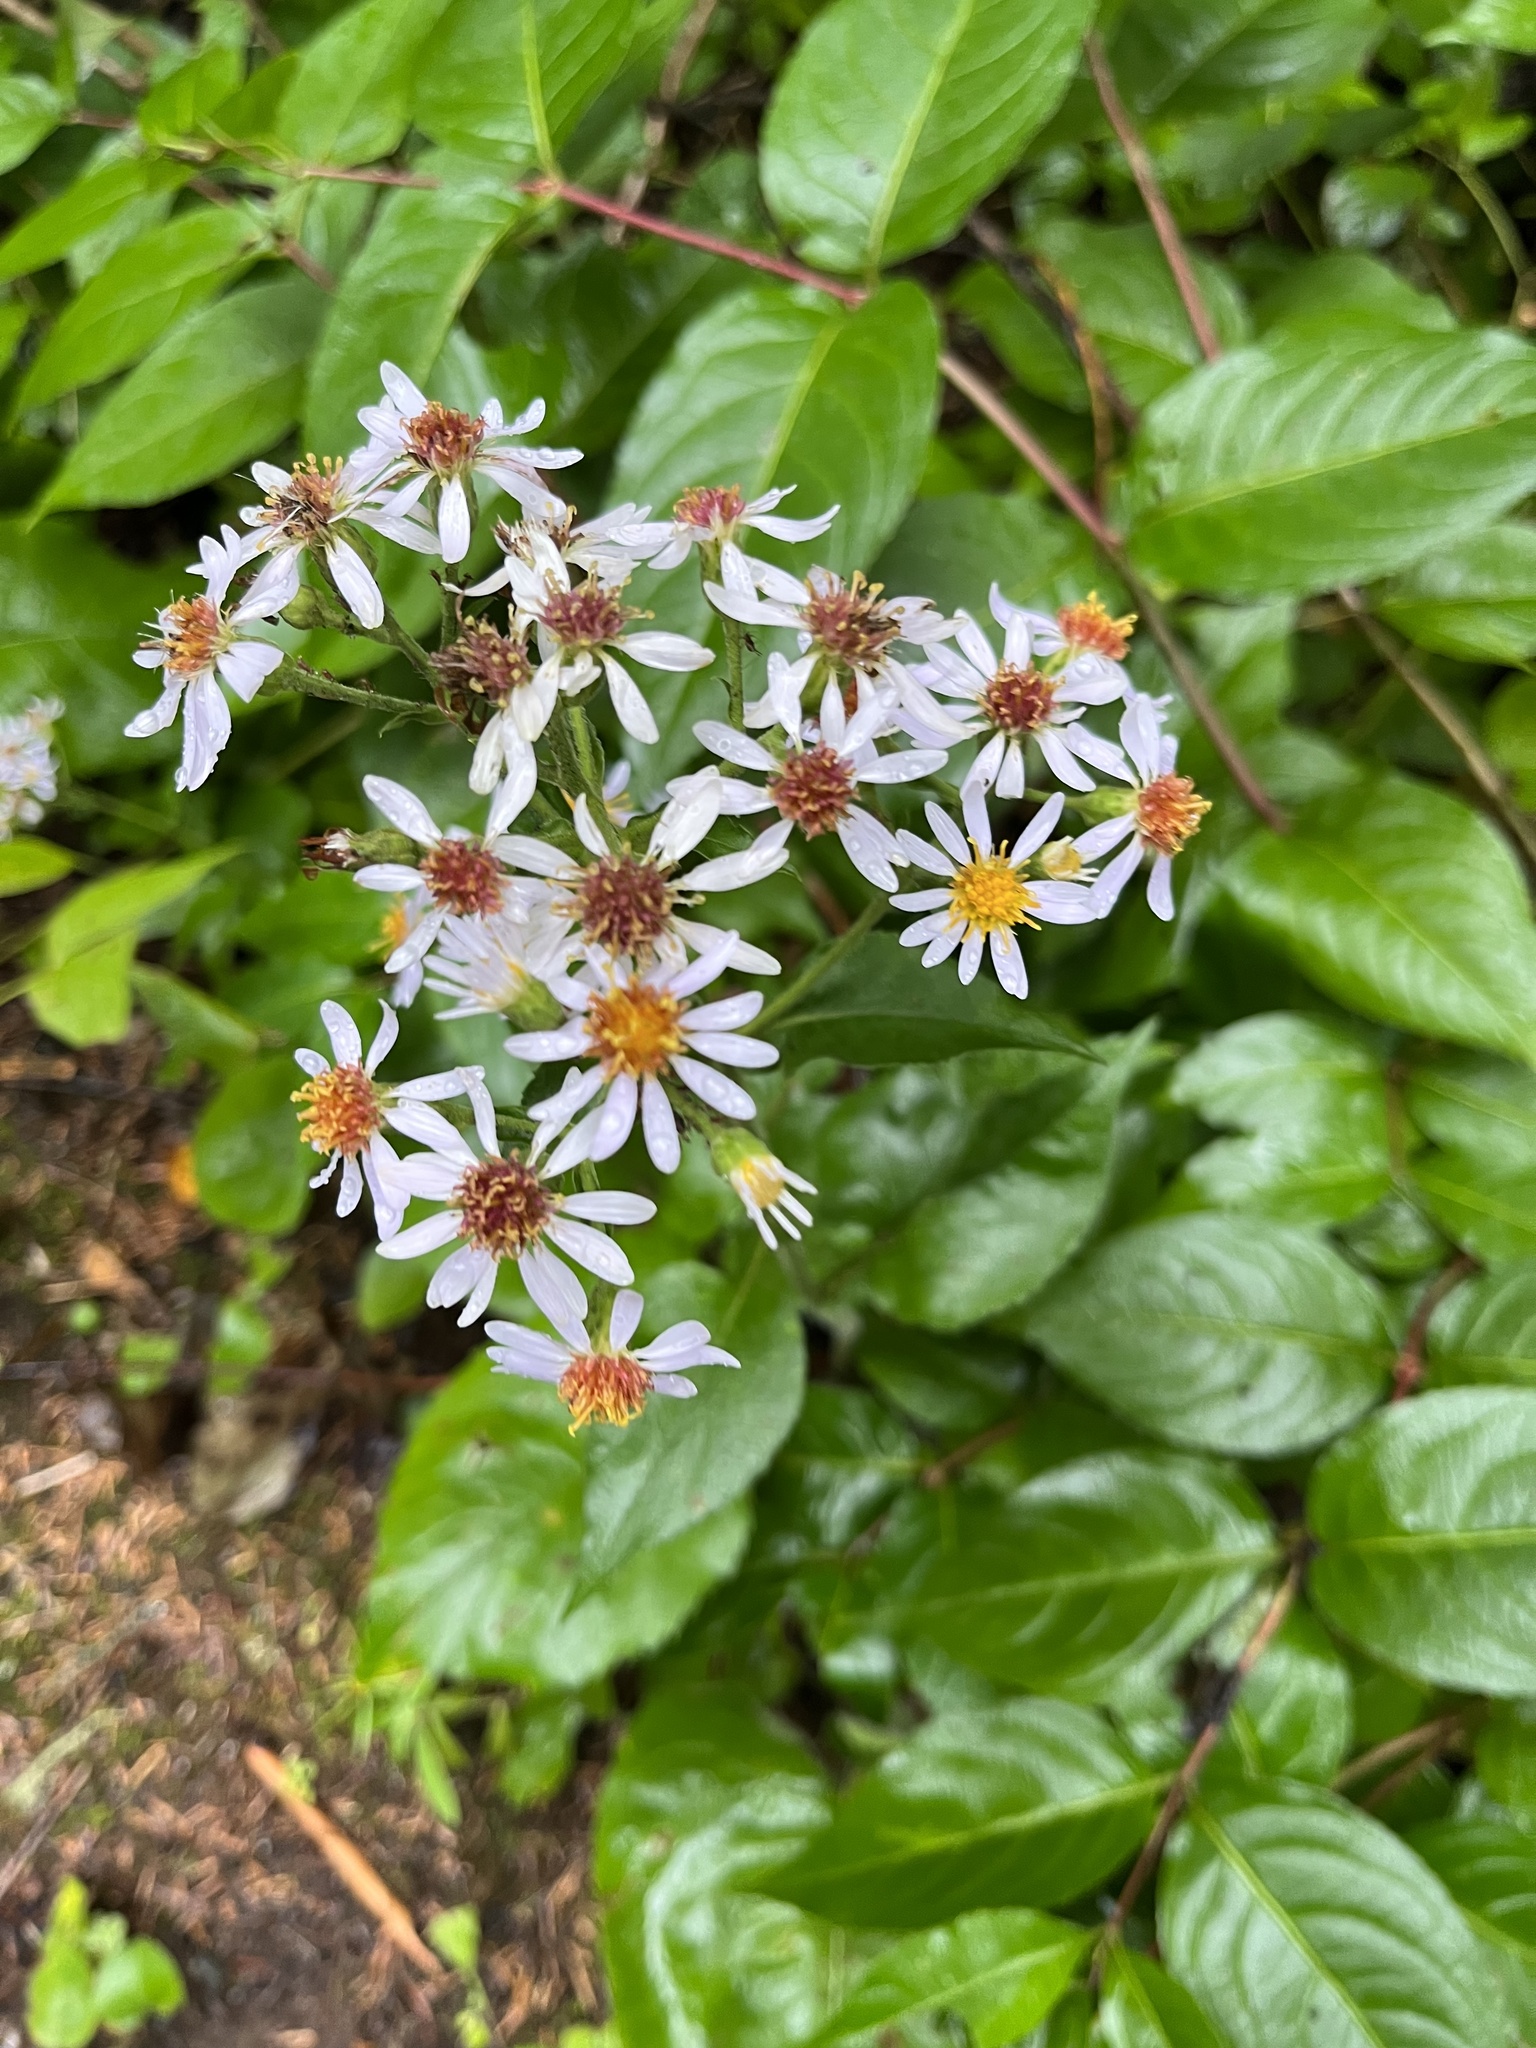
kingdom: Plantae
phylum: Tracheophyta
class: Magnoliopsida
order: Asterales
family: Asteraceae
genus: Eurybia
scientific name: Eurybia macrophylla
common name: Big-leaved aster
